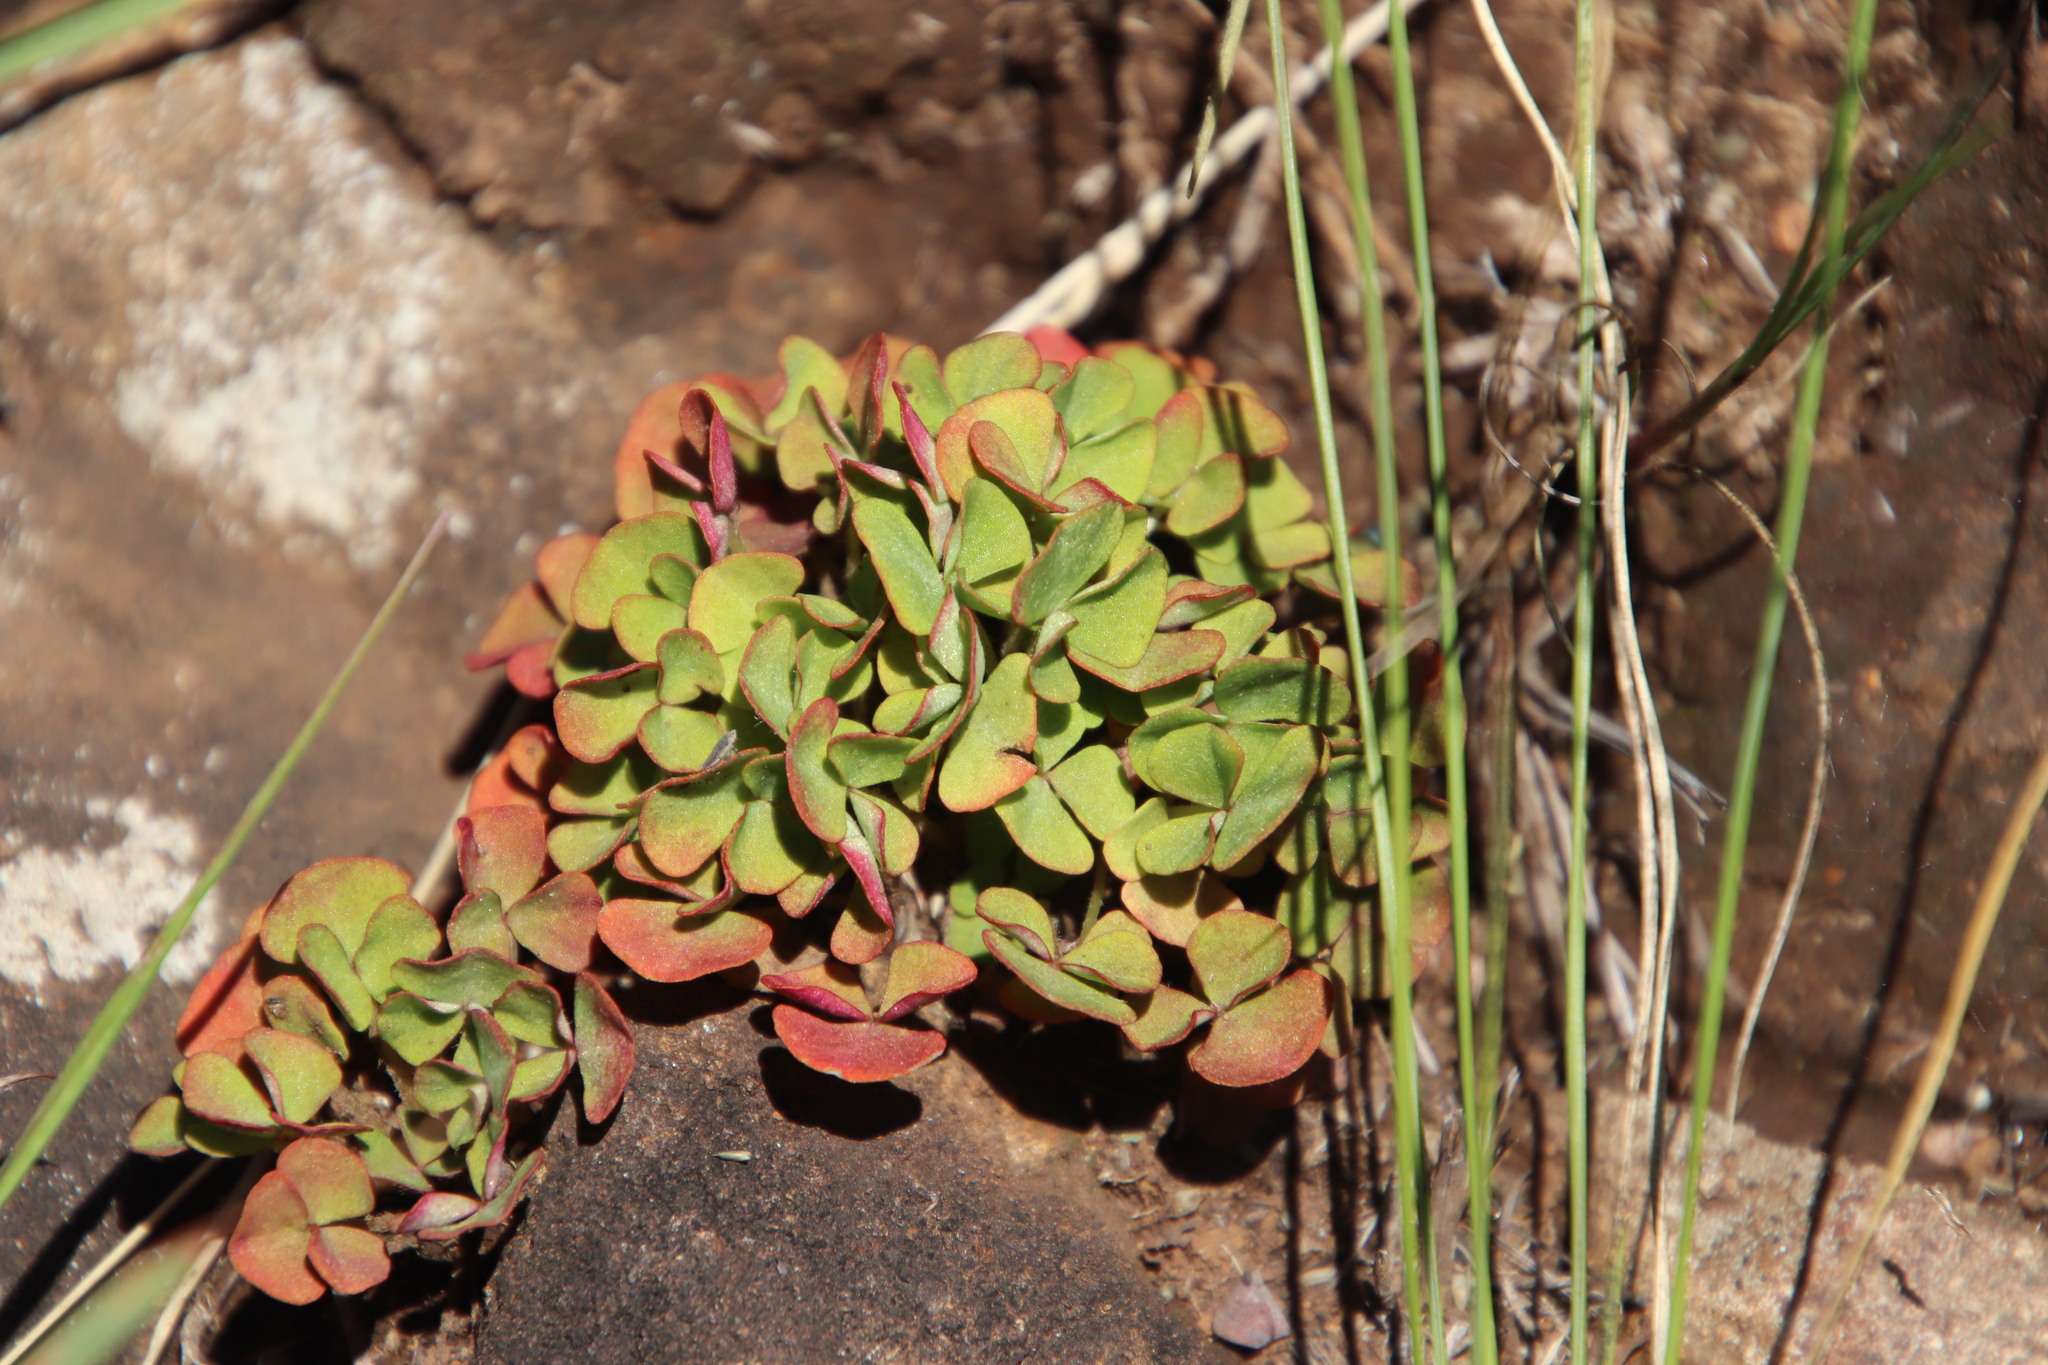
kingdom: Plantae
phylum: Tracheophyta
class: Magnoliopsida
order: Oxalidales
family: Oxalidaceae
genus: Oxalis
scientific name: Oxalis obliquifolia
